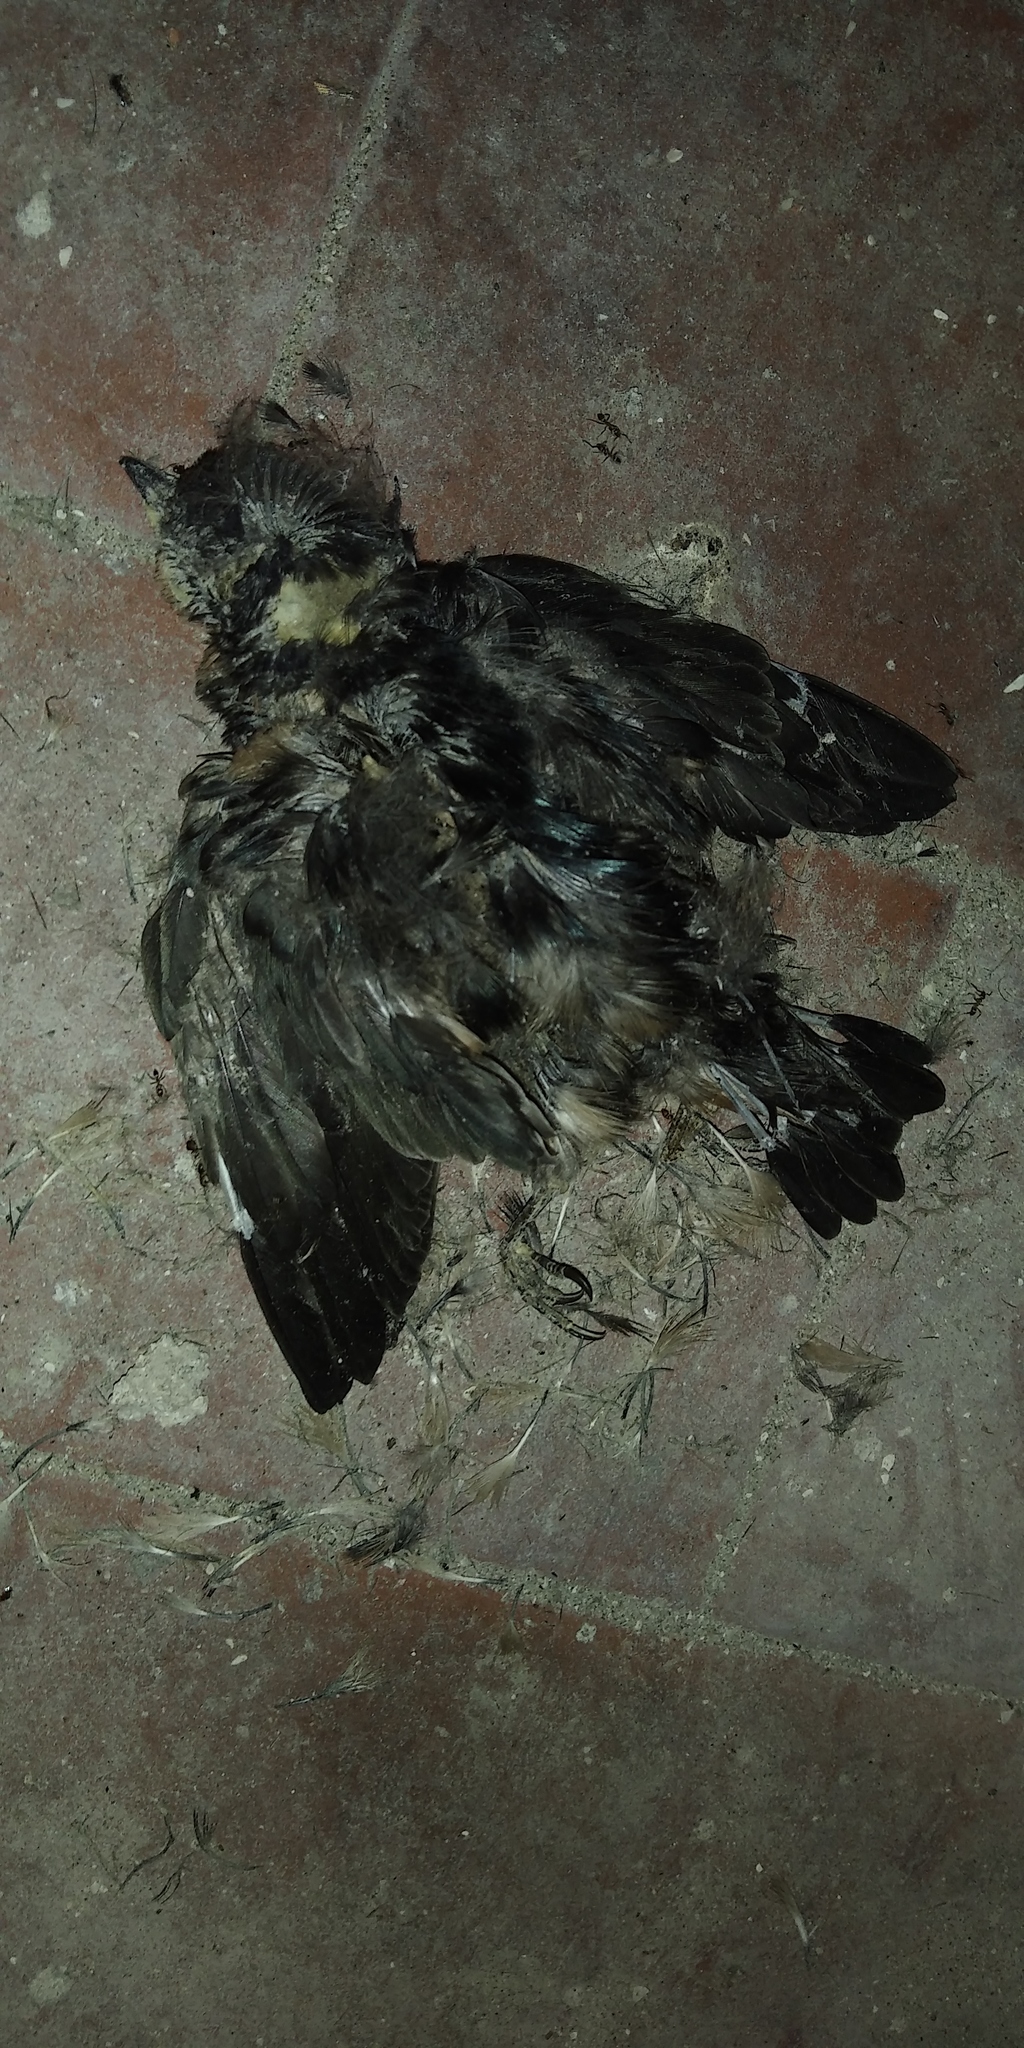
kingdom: Animalia
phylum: Chordata
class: Aves
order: Passeriformes
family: Hirundinidae
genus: Hirundo
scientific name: Hirundo rustica
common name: Barn swallow
